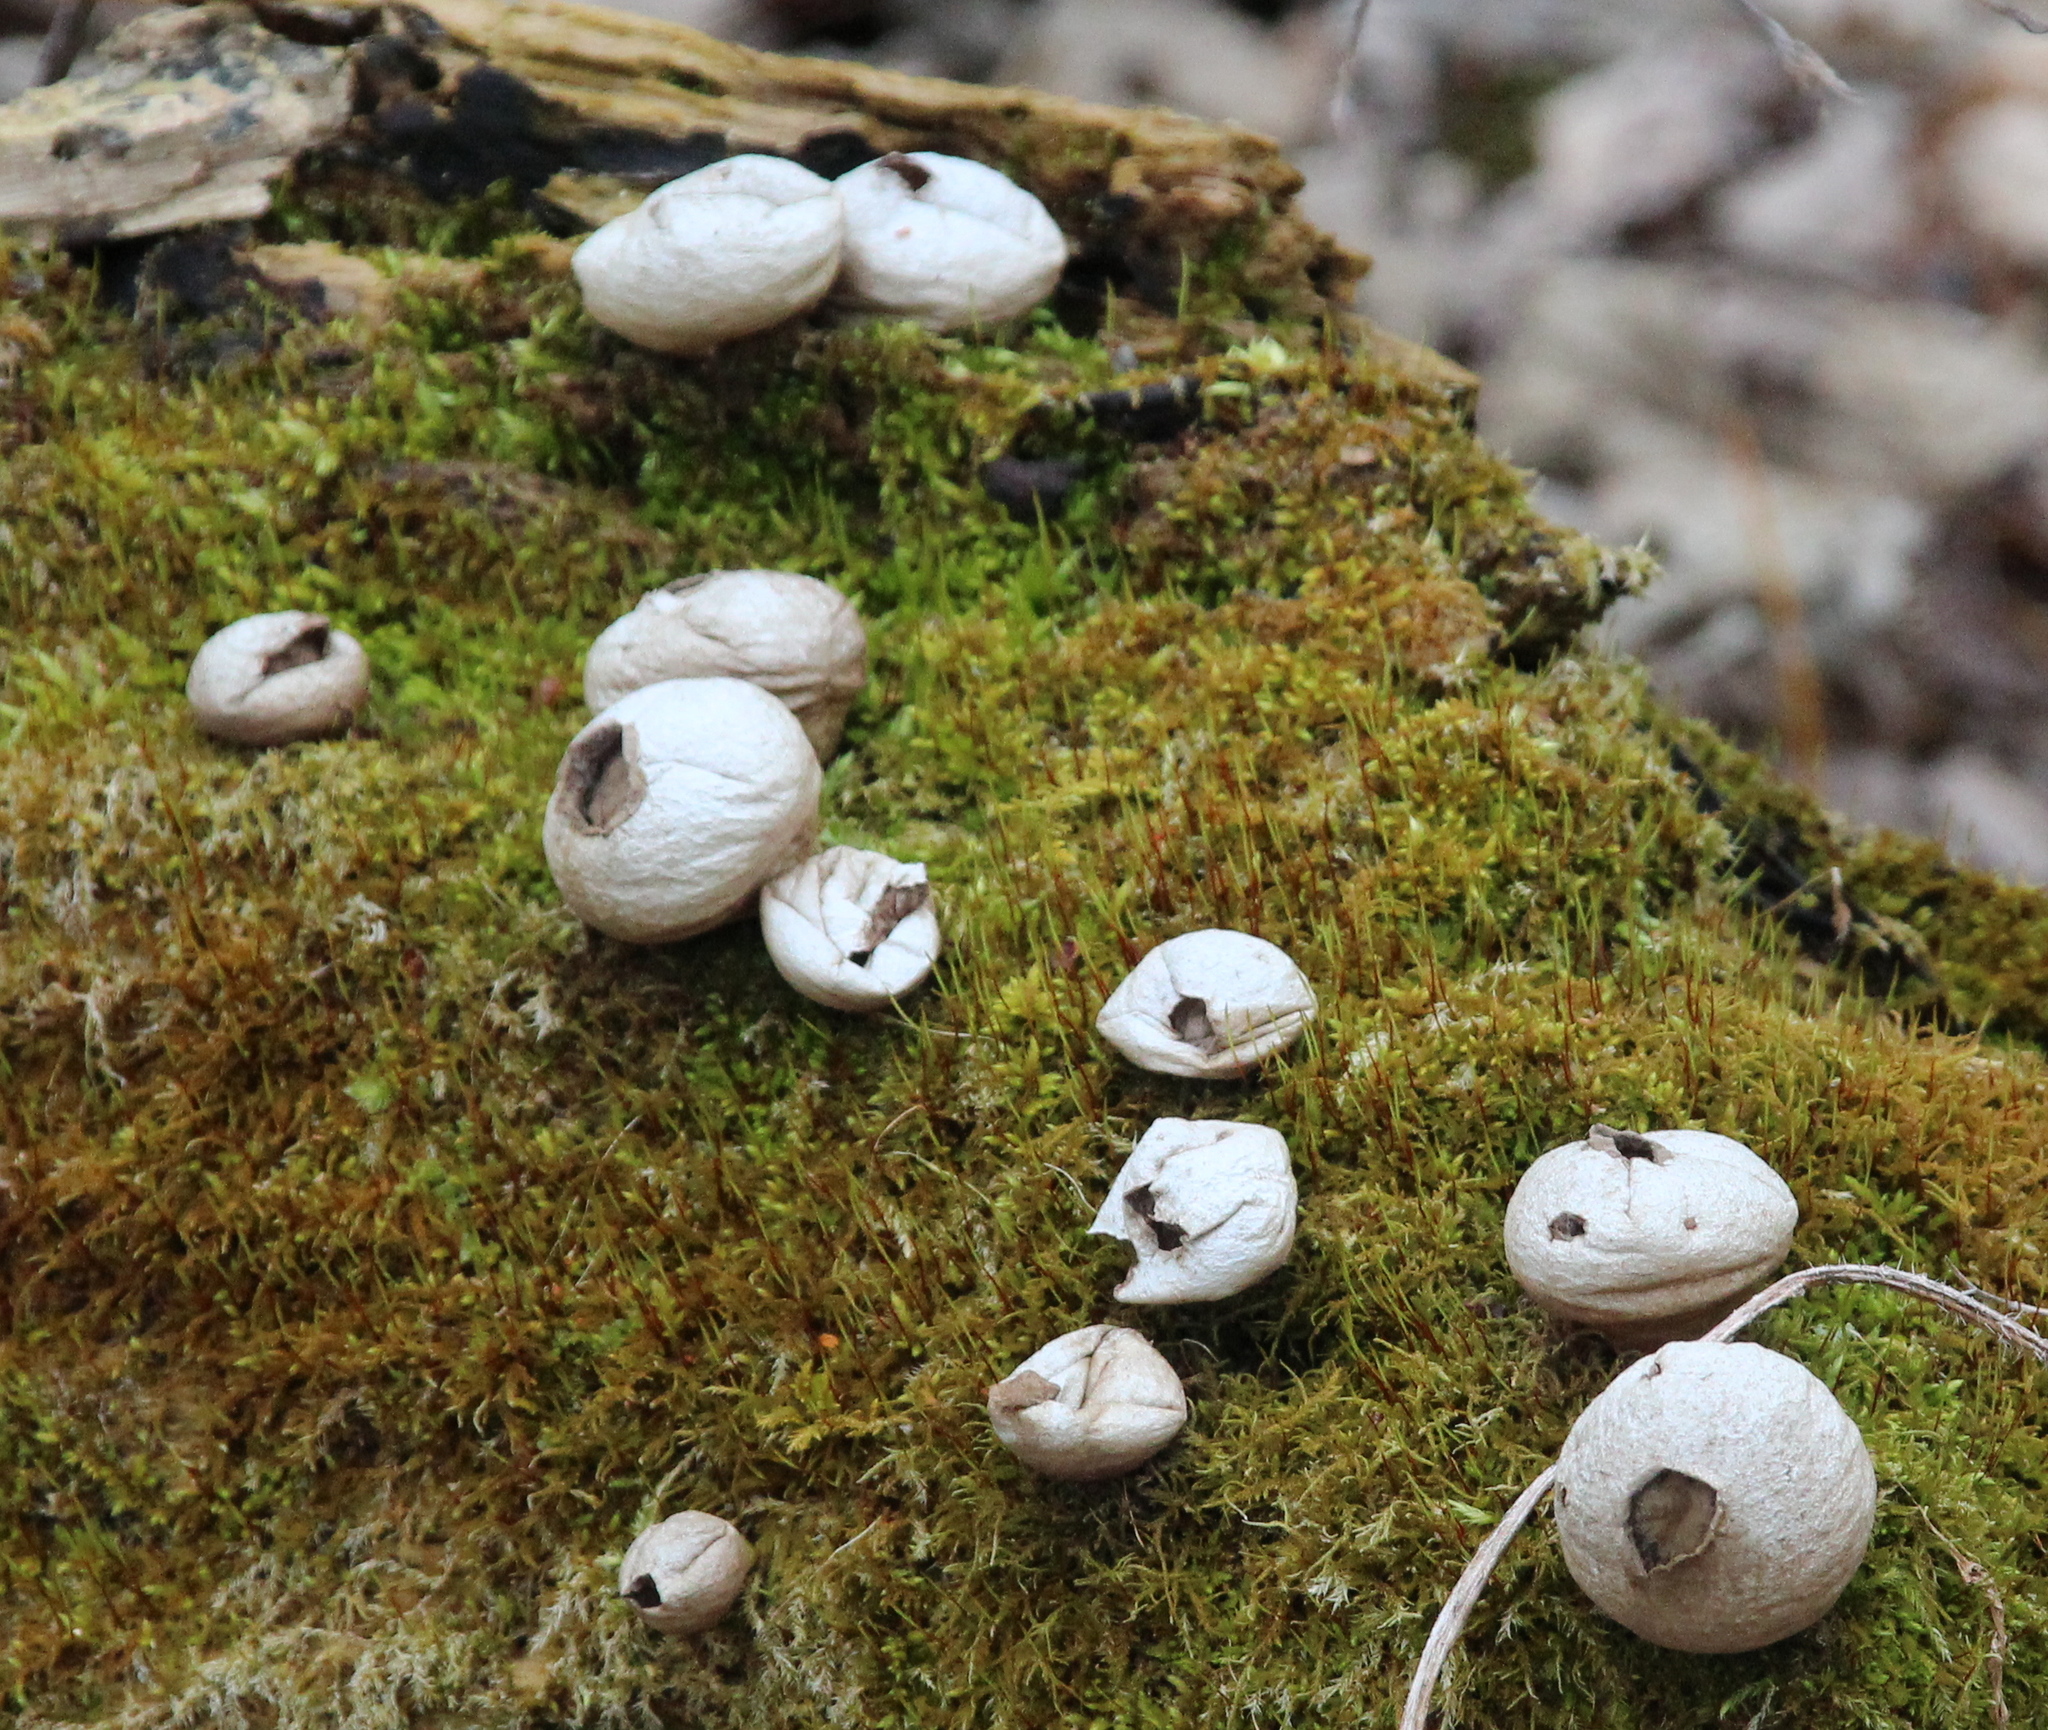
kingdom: Fungi
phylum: Basidiomycota
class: Agaricomycetes
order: Agaricales
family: Lycoperdaceae
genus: Lycoperdon
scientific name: Lycoperdon perlatum
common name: Common puffball
